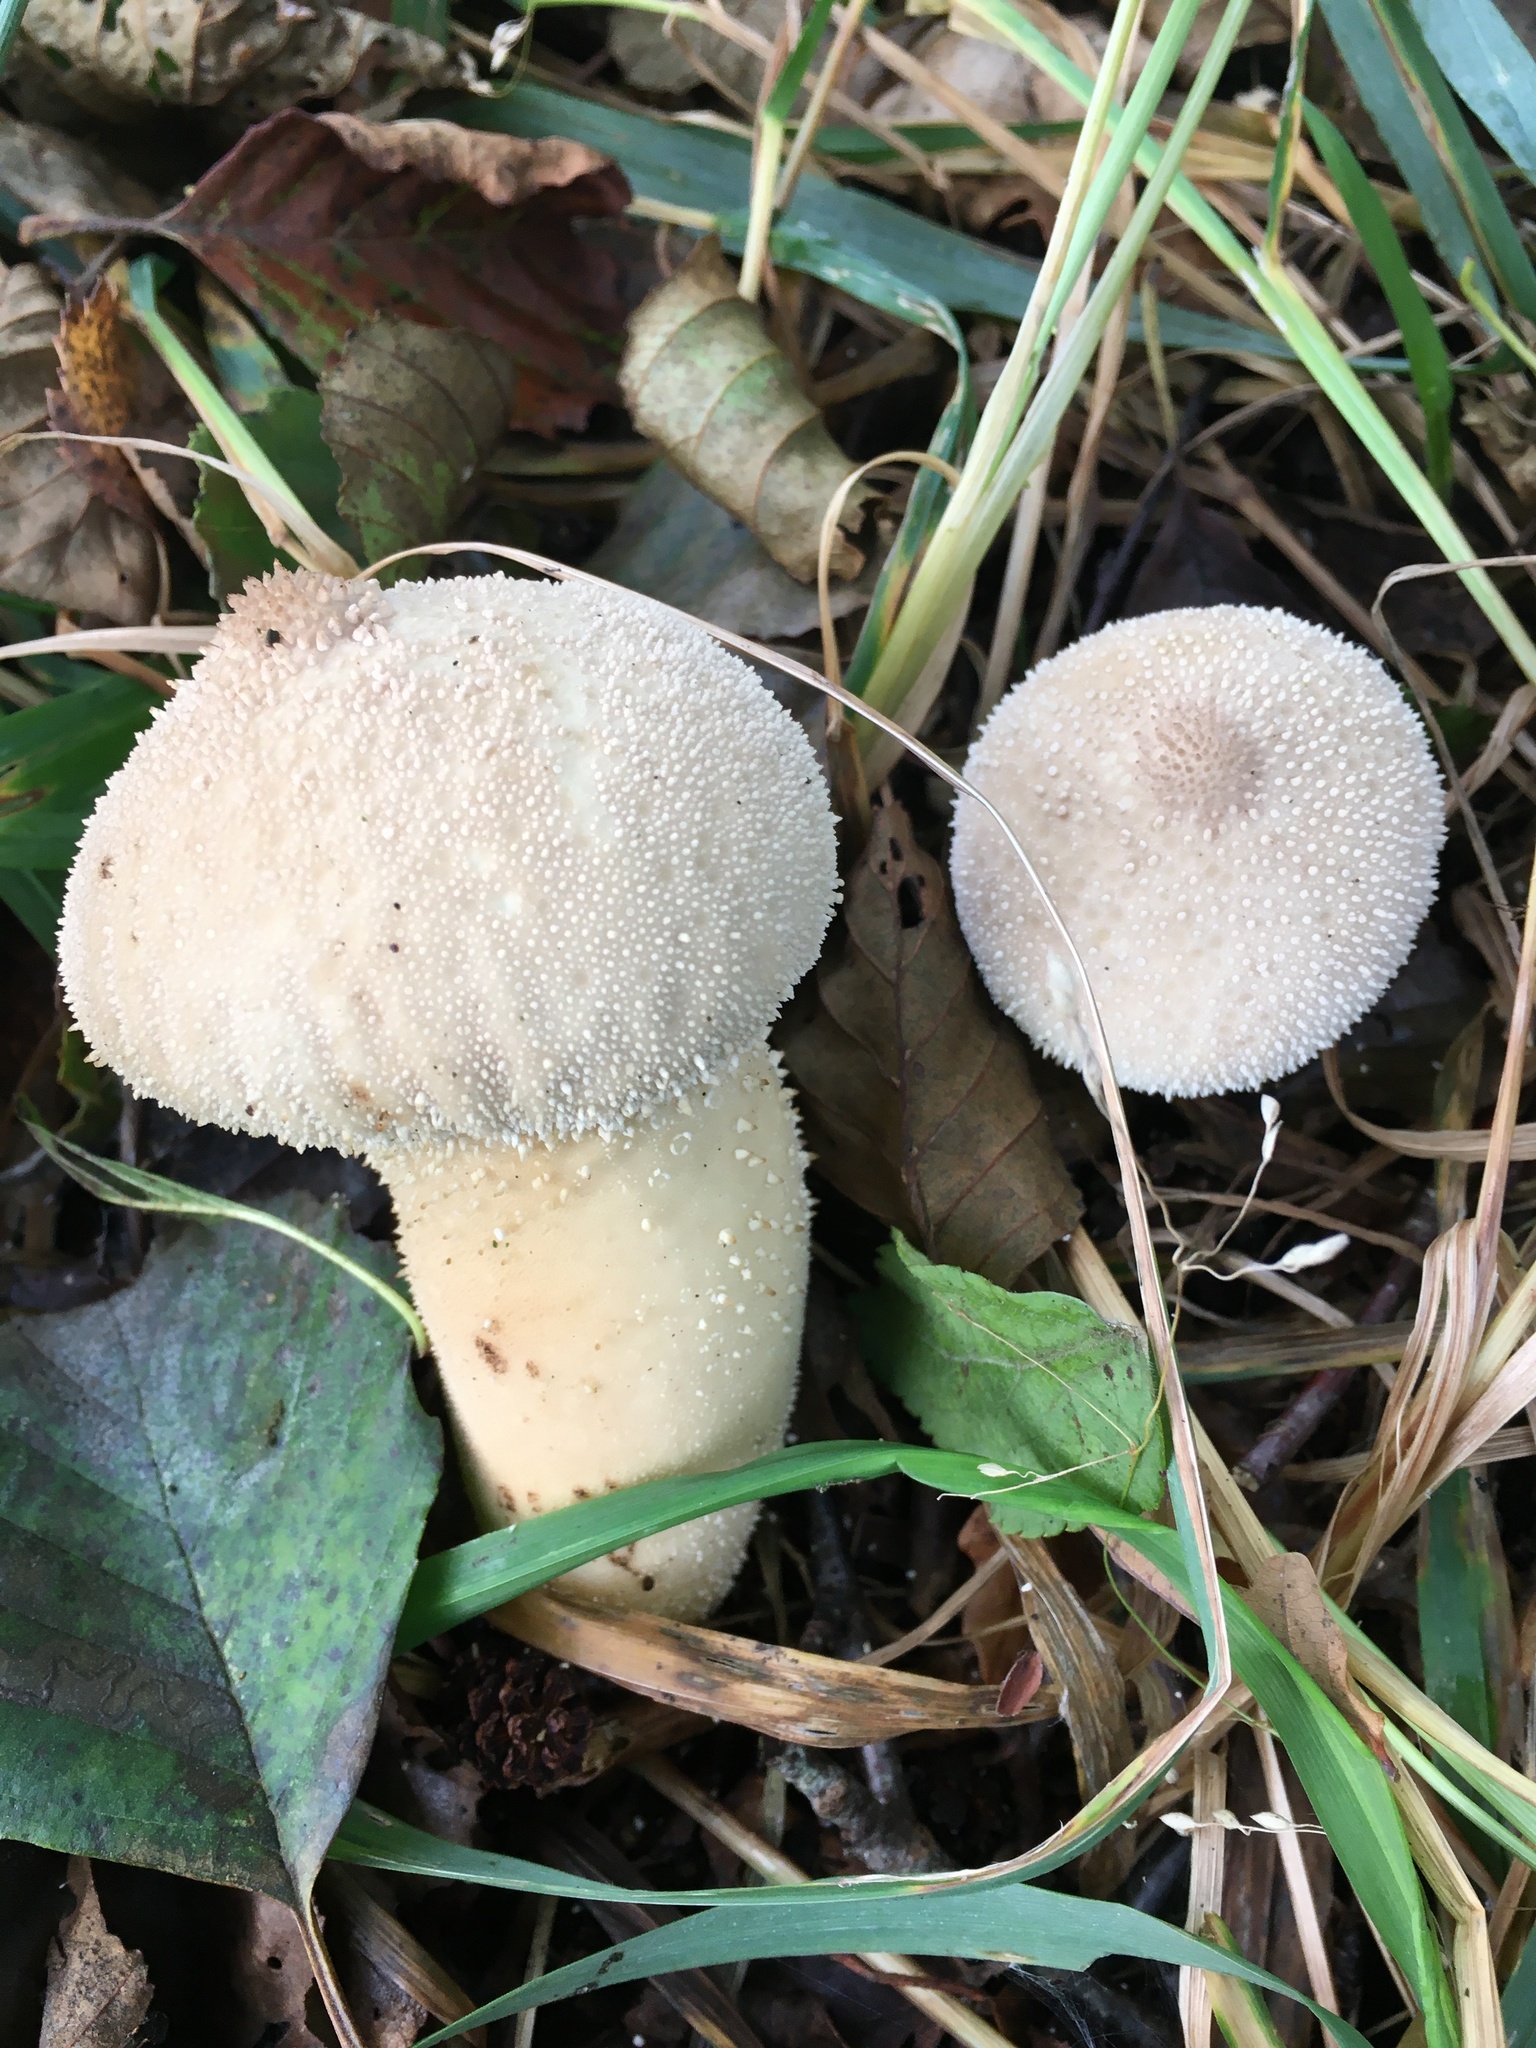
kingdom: Fungi
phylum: Basidiomycota
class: Agaricomycetes
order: Agaricales
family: Lycoperdaceae
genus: Lycoperdon
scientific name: Lycoperdon perlatum
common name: Common puffball
